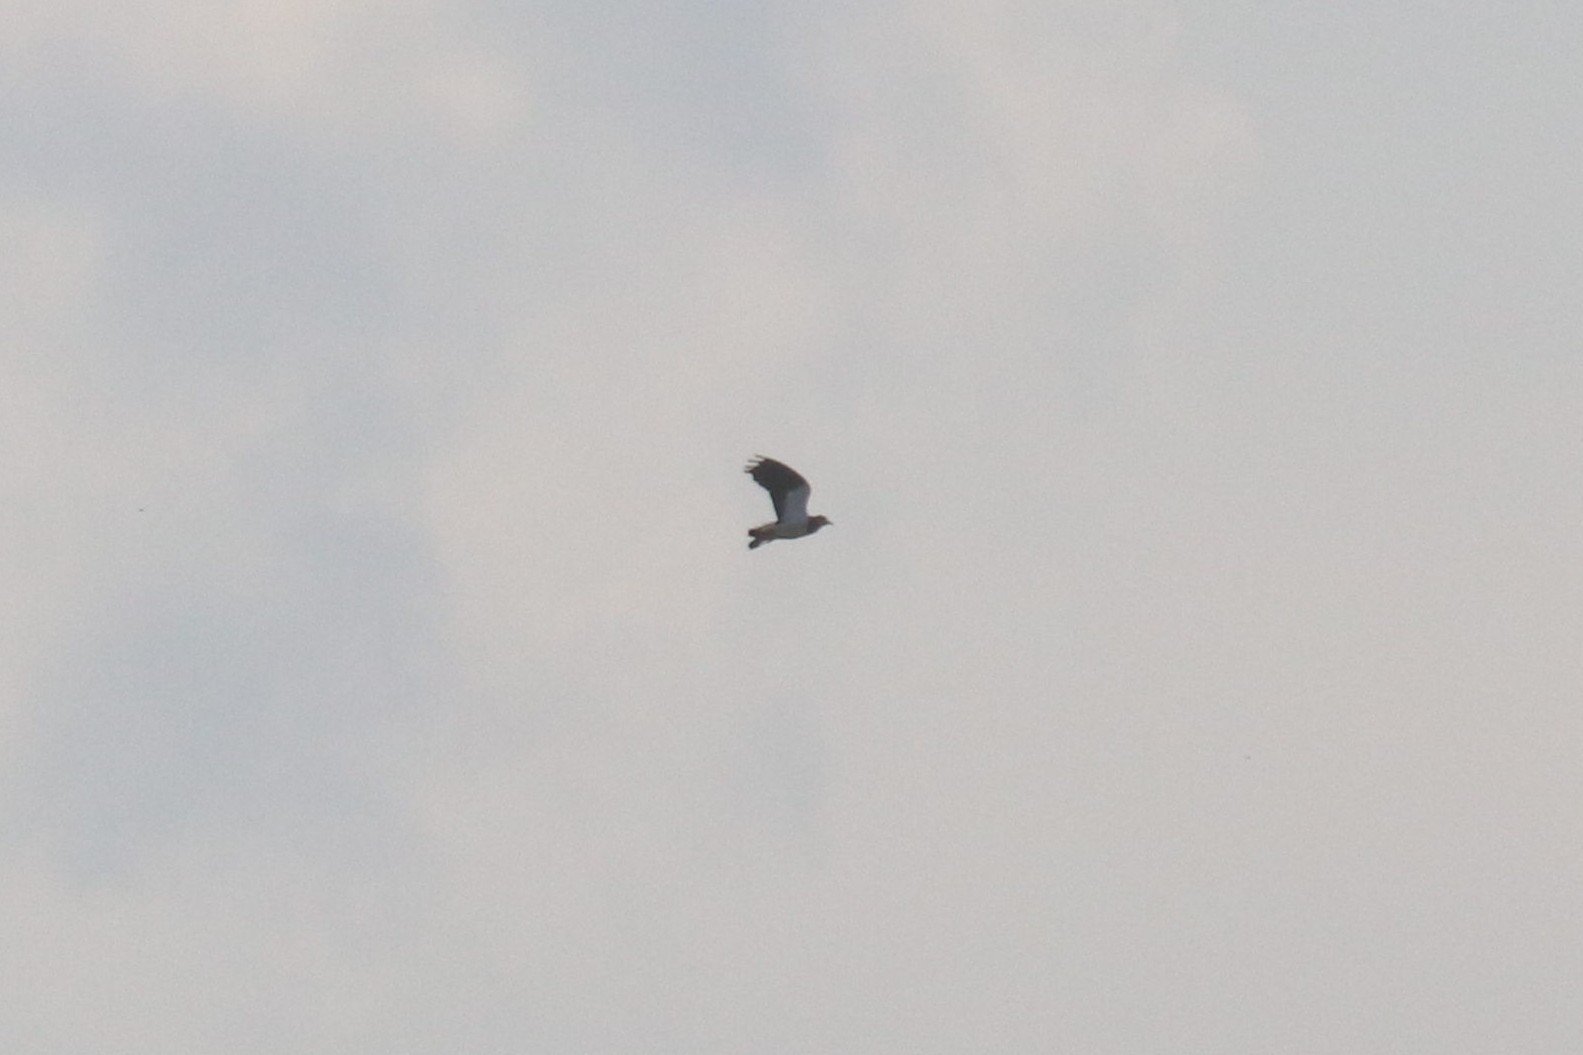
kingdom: Animalia
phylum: Chordata
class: Aves
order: Charadriiformes
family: Charadriidae
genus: Vanellus
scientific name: Vanellus vanellus
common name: Northern lapwing
